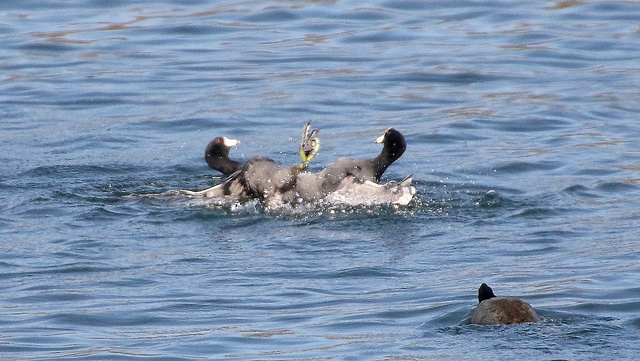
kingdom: Animalia
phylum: Chordata
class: Aves
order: Gruiformes
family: Rallidae
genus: Fulica
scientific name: Fulica americana
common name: American coot
